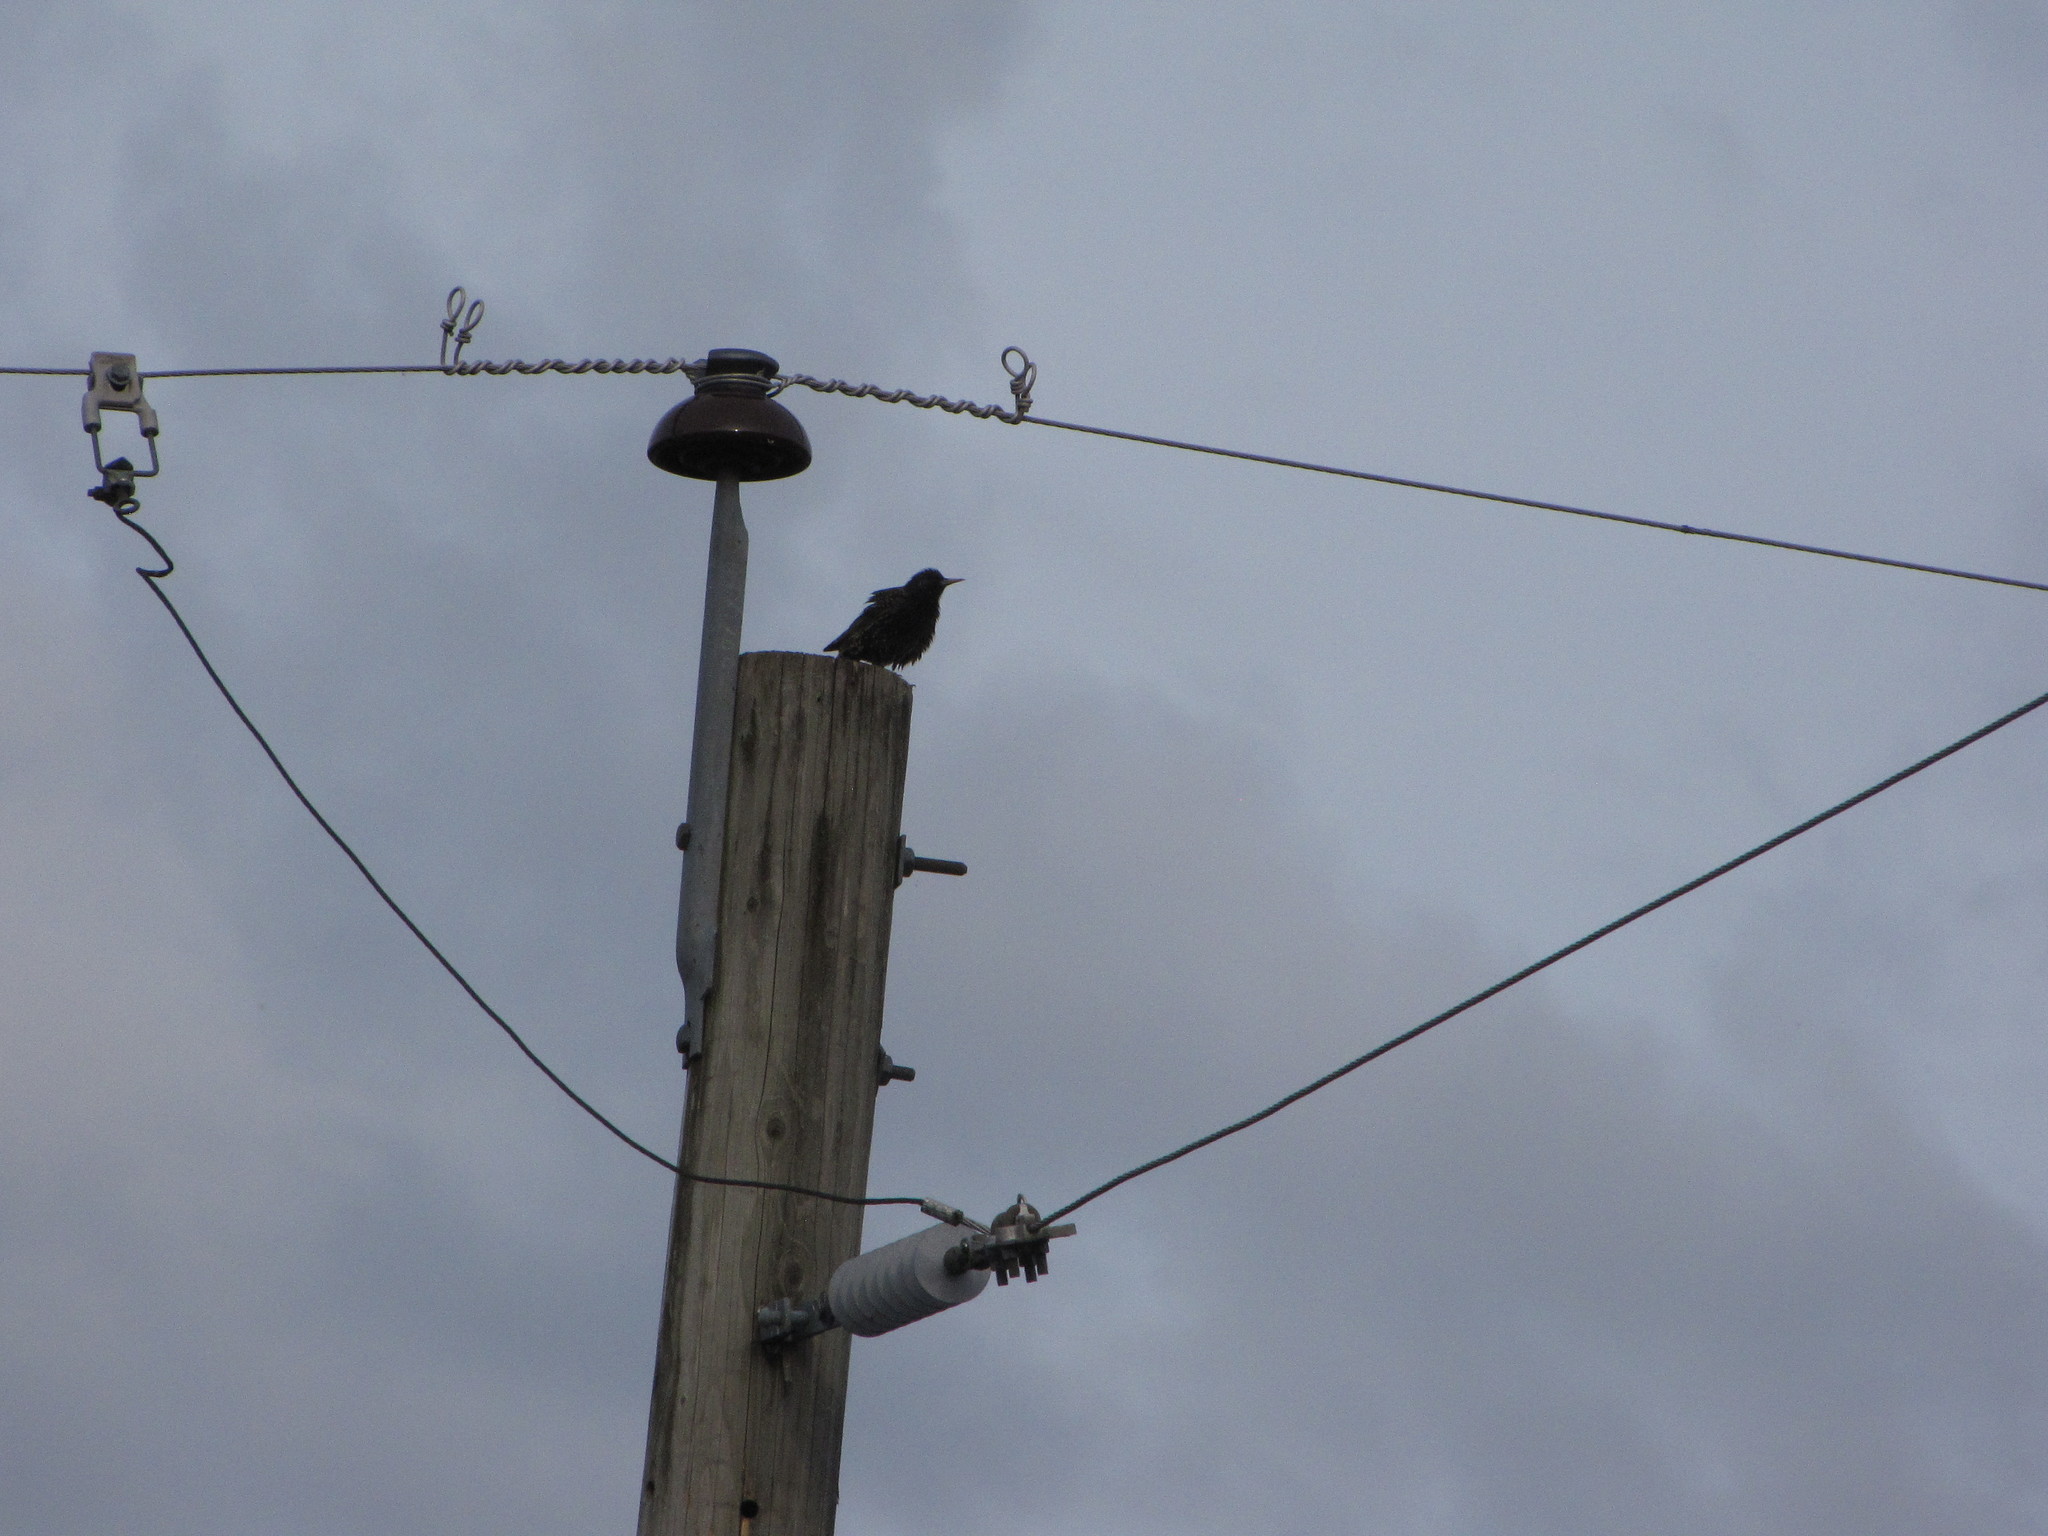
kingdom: Animalia
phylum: Chordata
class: Aves
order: Passeriformes
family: Sturnidae
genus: Sturnus
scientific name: Sturnus vulgaris
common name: Common starling
